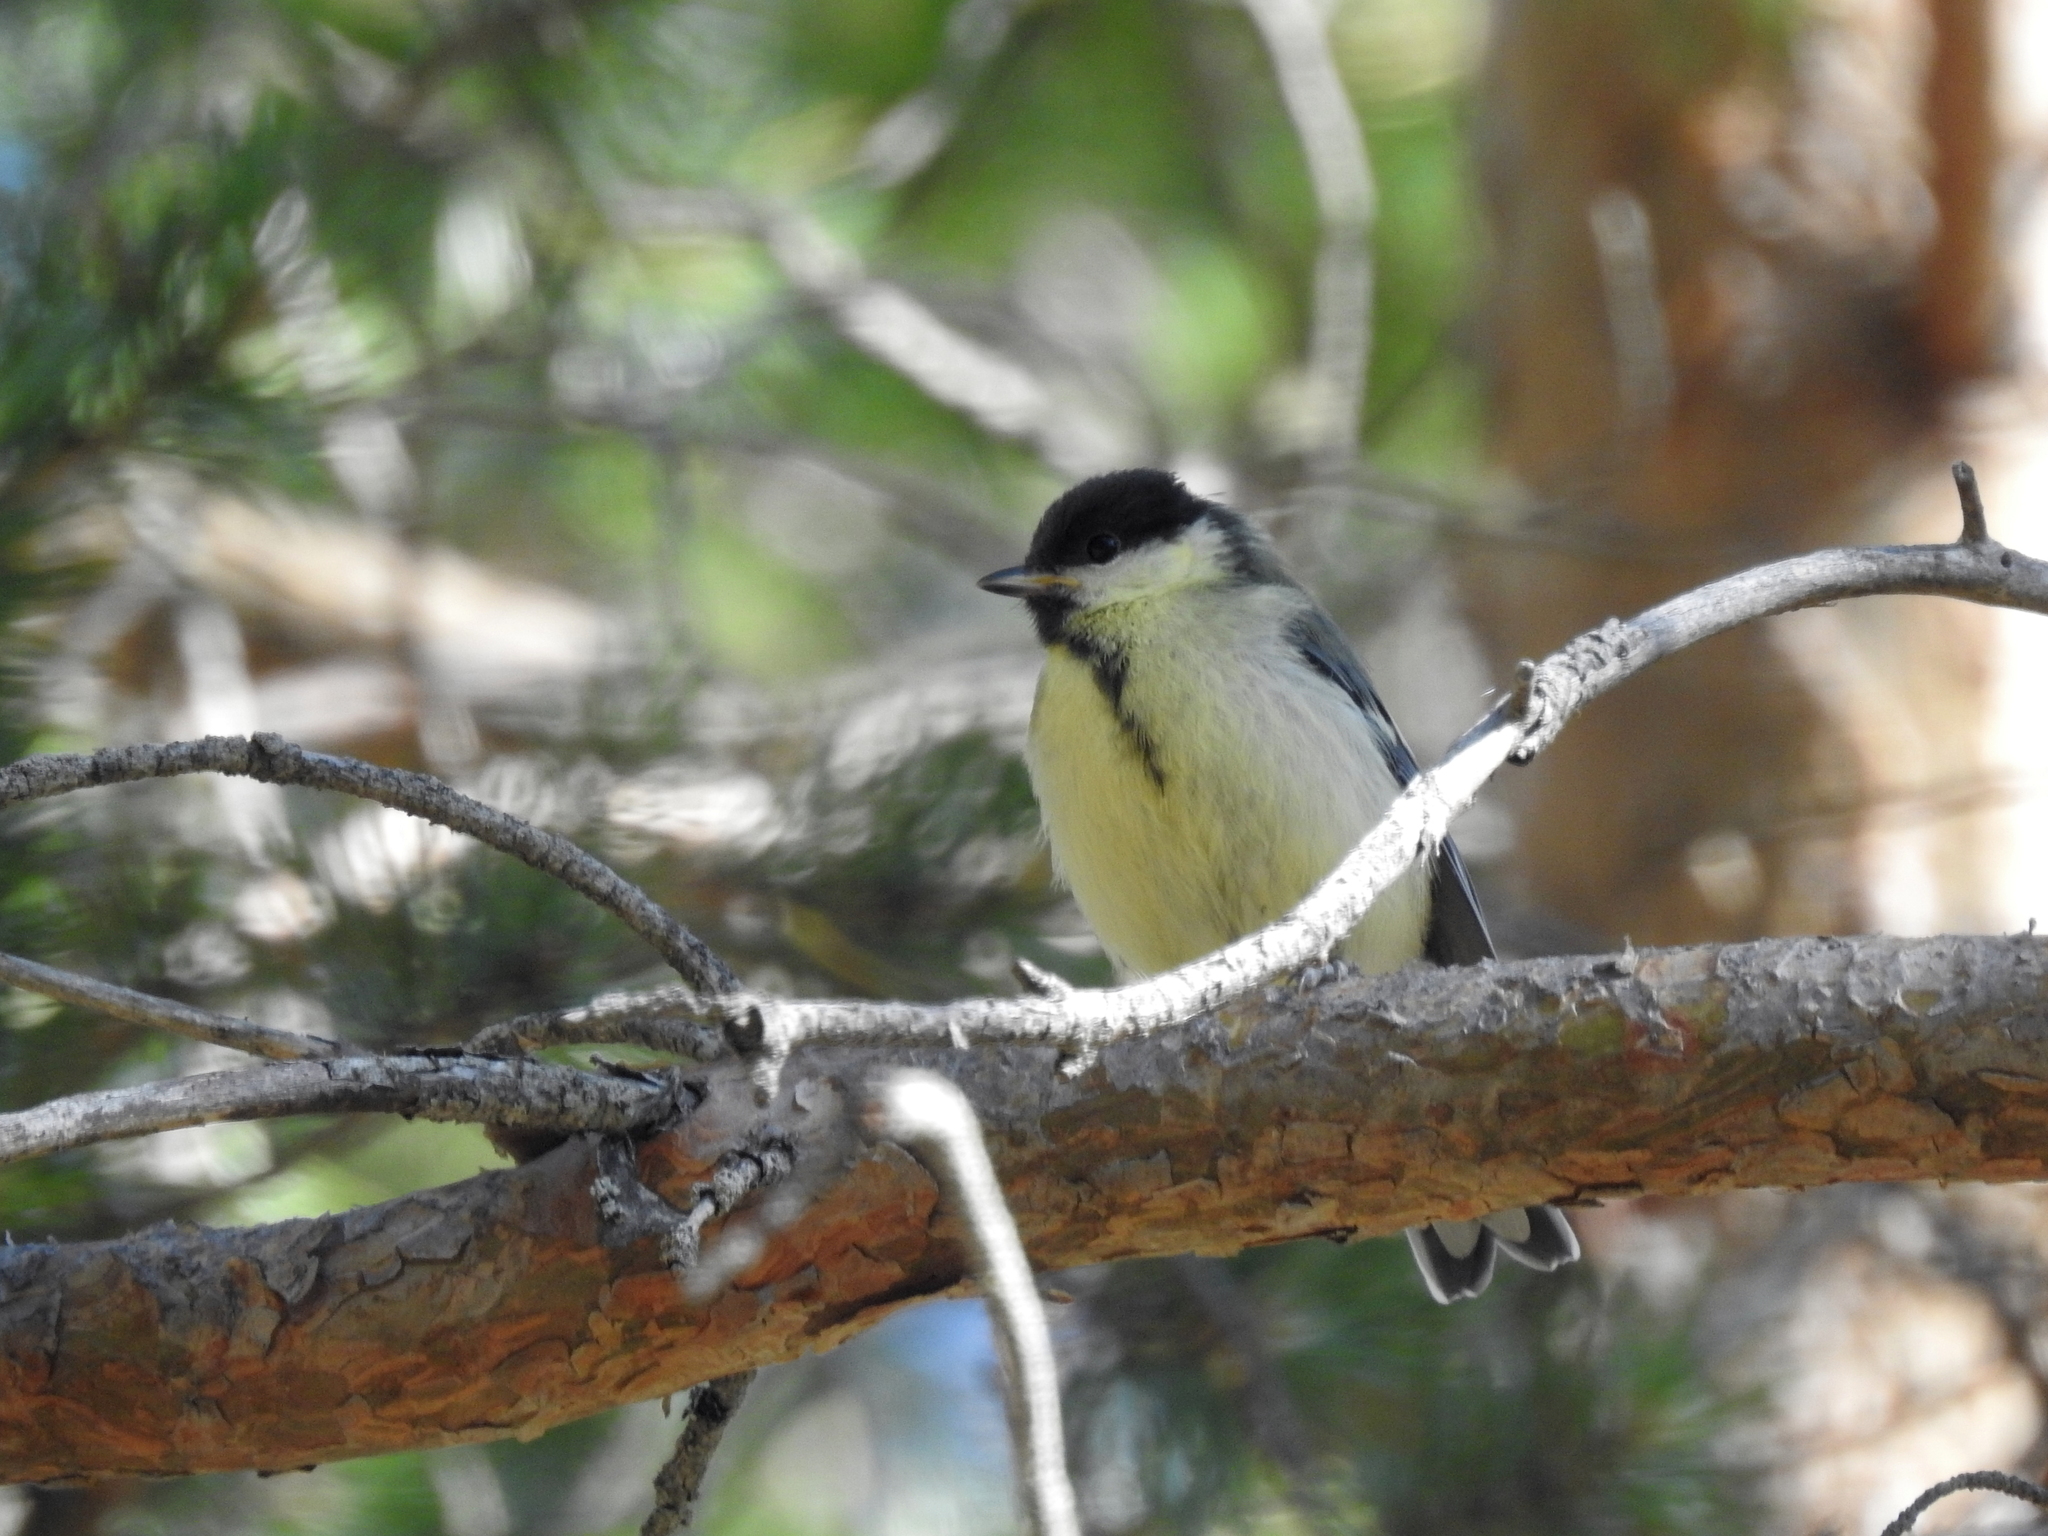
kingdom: Animalia
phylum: Chordata
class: Aves
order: Passeriformes
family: Paridae
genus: Parus
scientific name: Parus major
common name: Great tit
